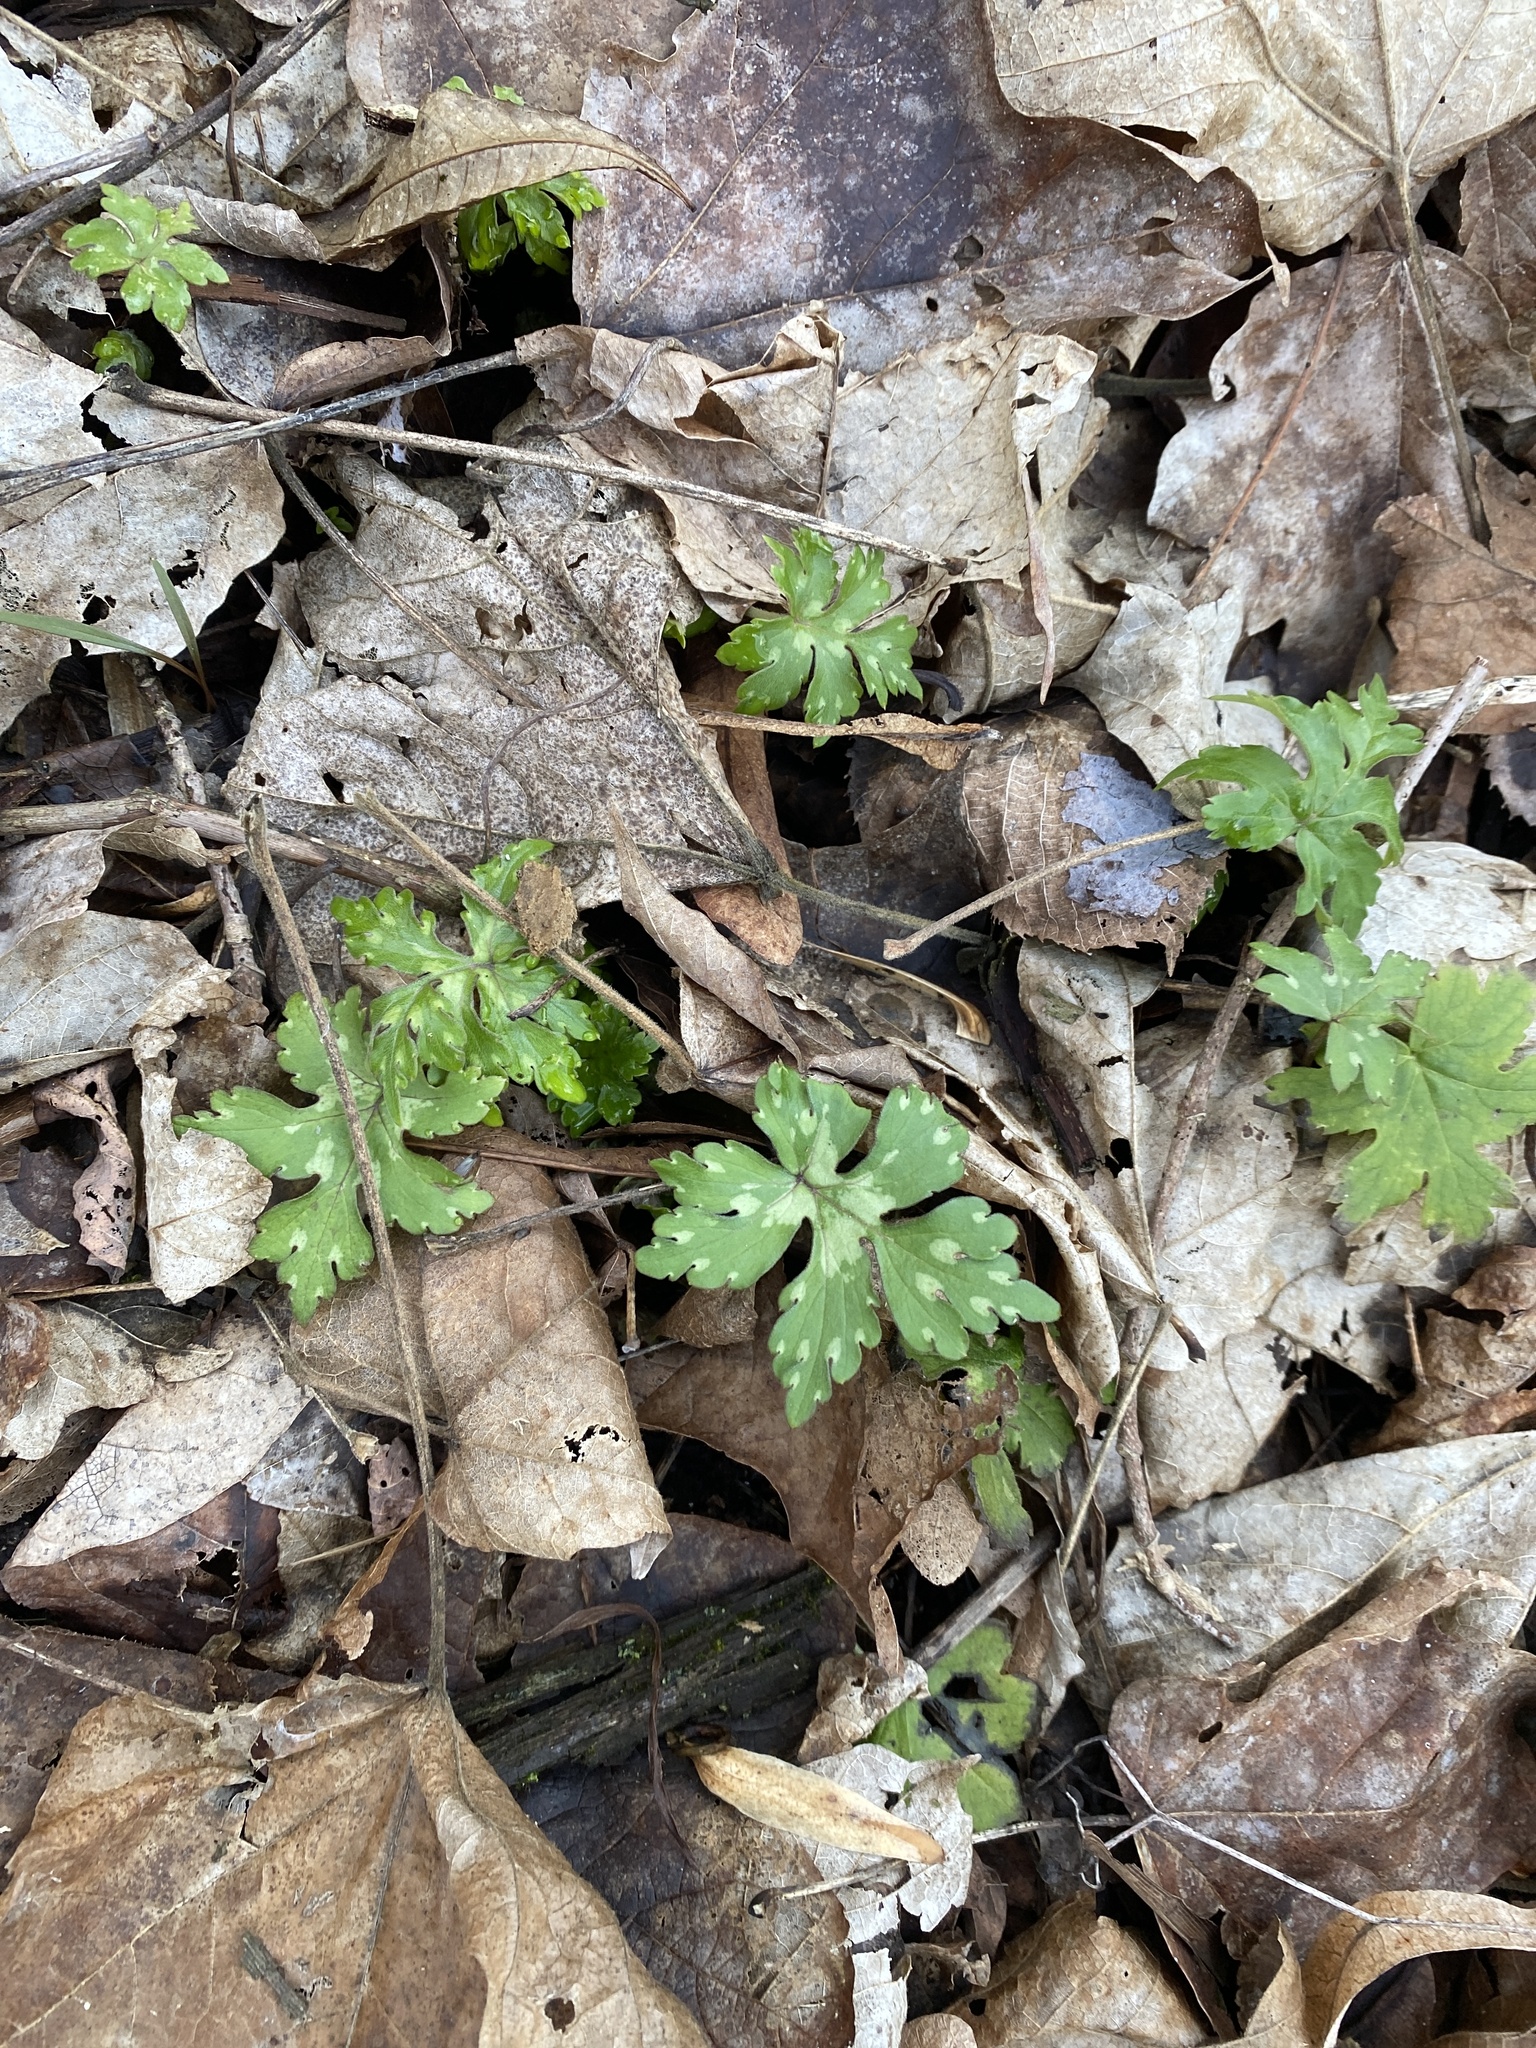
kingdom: Plantae
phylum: Tracheophyta
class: Magnoliopsida
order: Boraginales
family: Hydrophyllaceae
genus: Hydrophyllum
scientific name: Hydrophyllum canadense
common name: Canada waterleaf
